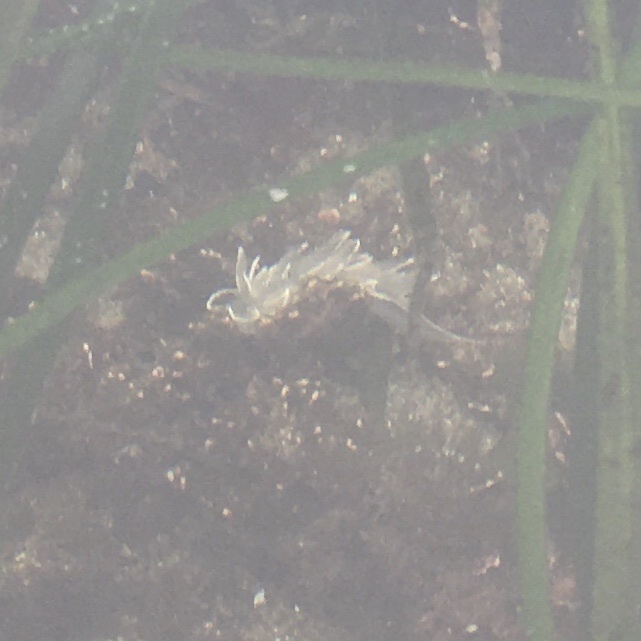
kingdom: Animalia
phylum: Mollusca
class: Gastropoda
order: Nudibranchia
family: Dironidae
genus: Dirona
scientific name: Dirona albolineata
